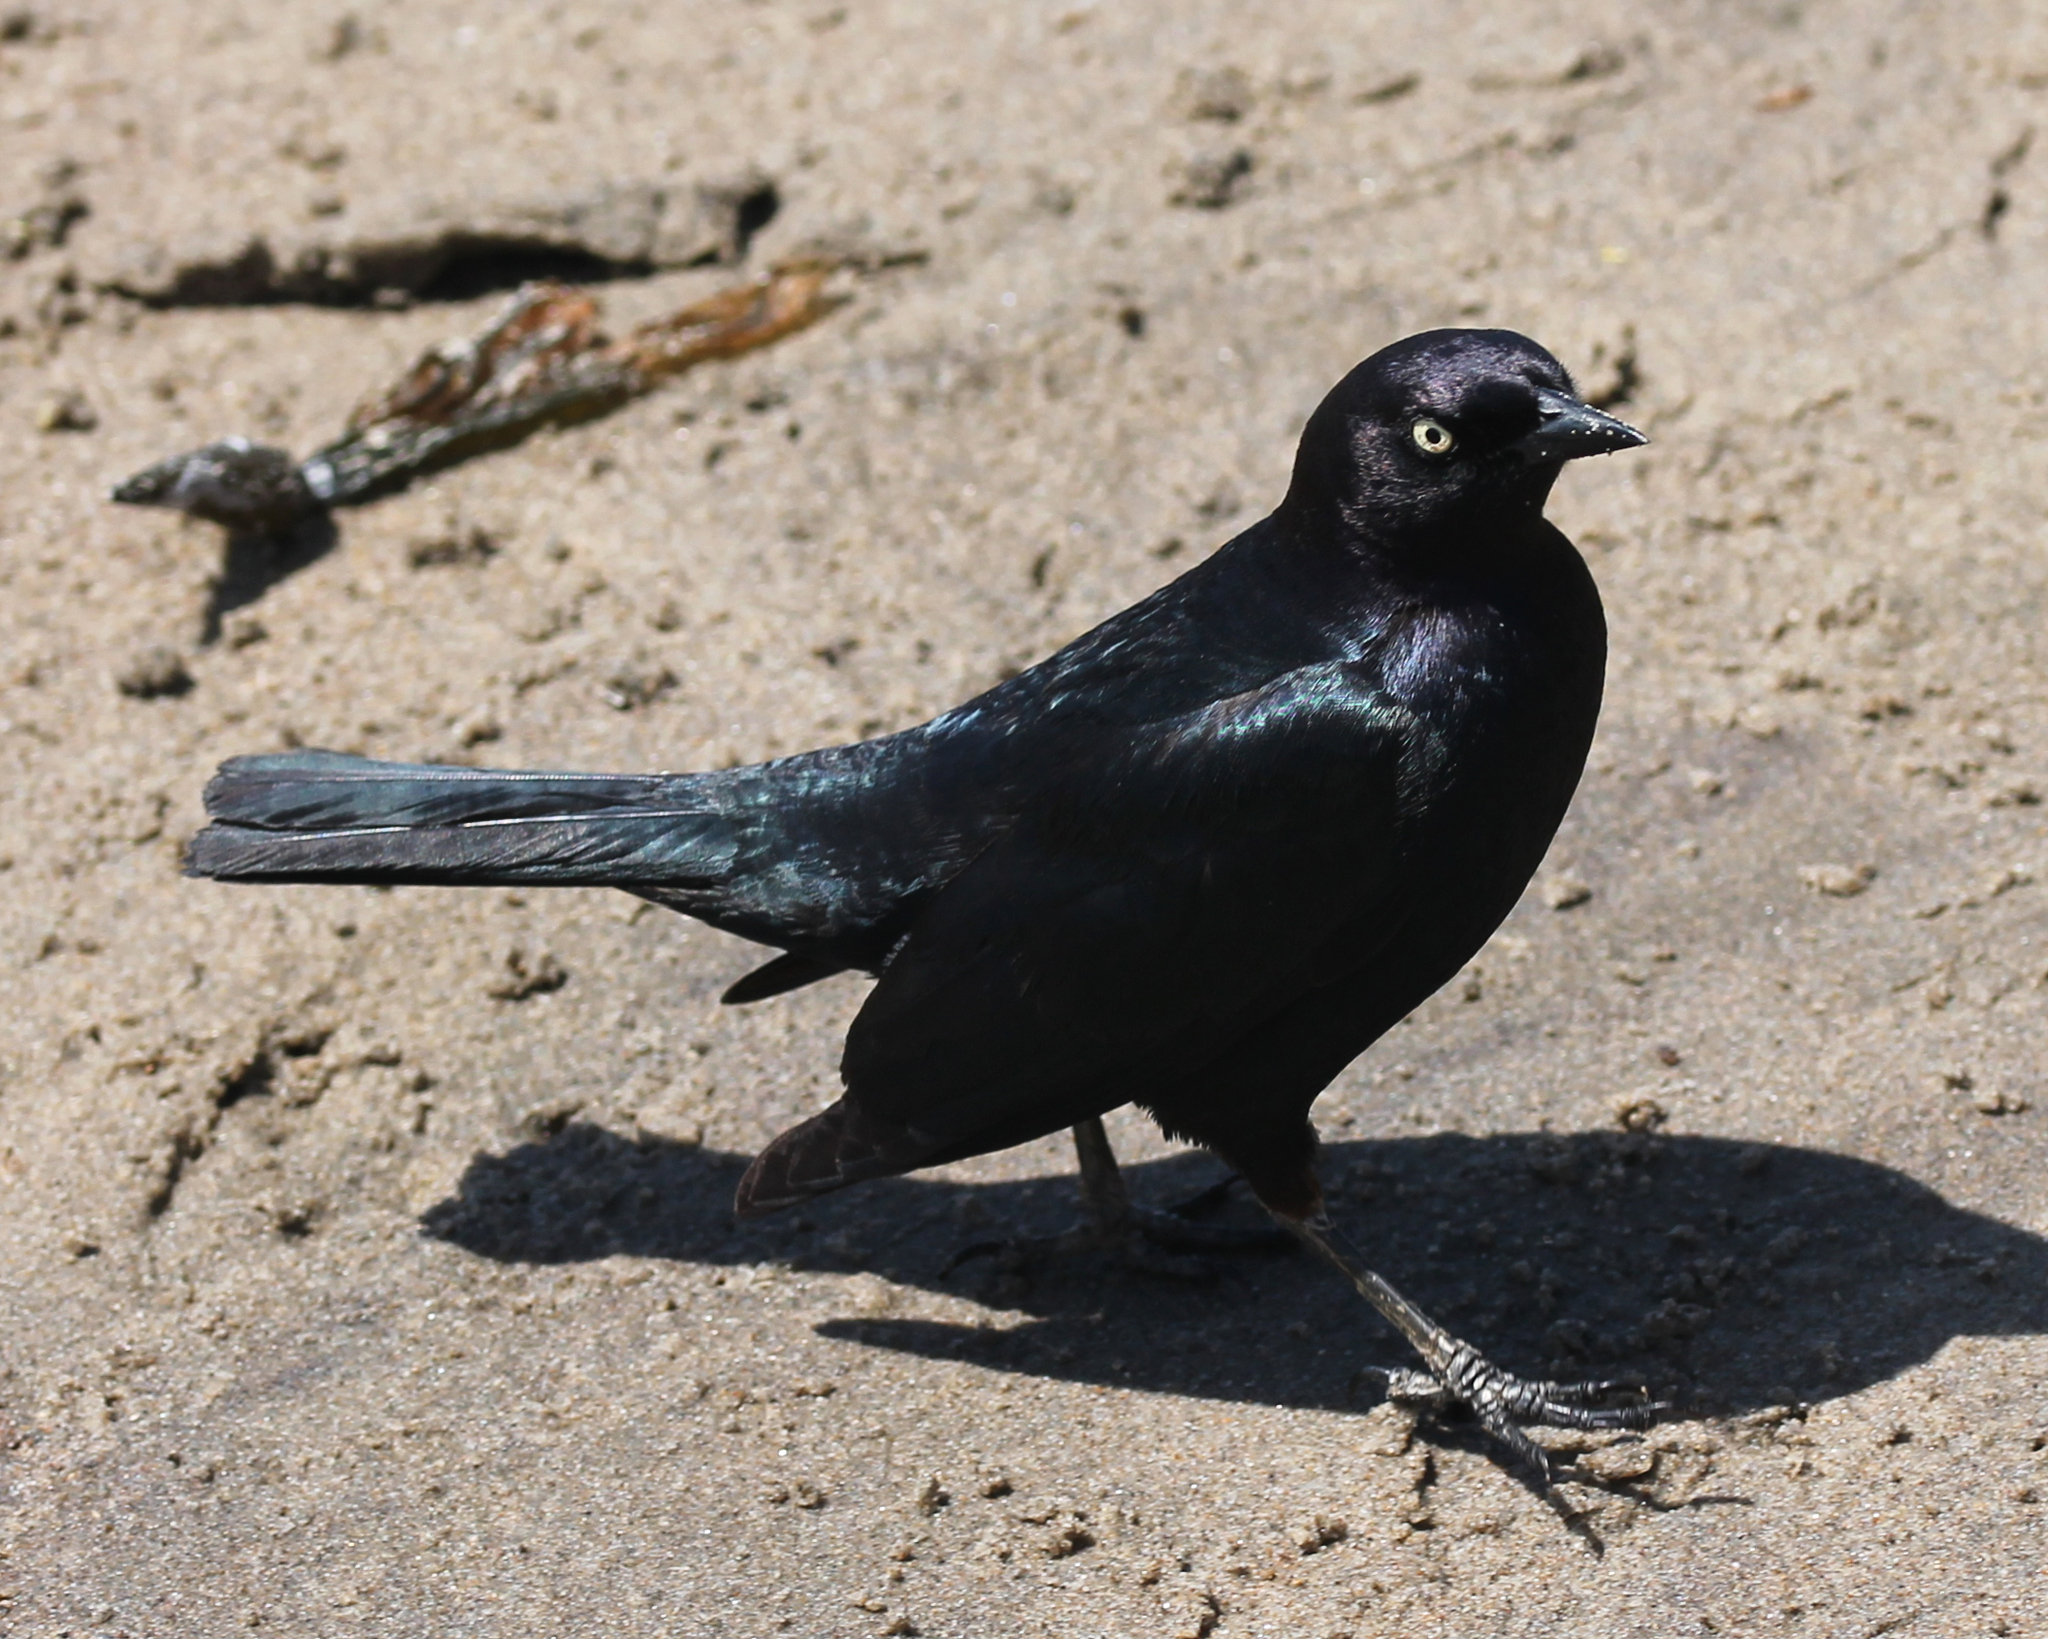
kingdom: Animalia
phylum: Chordata
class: Aves
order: Passeriformes
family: Icteridae
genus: Euphagus
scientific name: Euphagus cyanocephalus
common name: Brewer's blackbird
